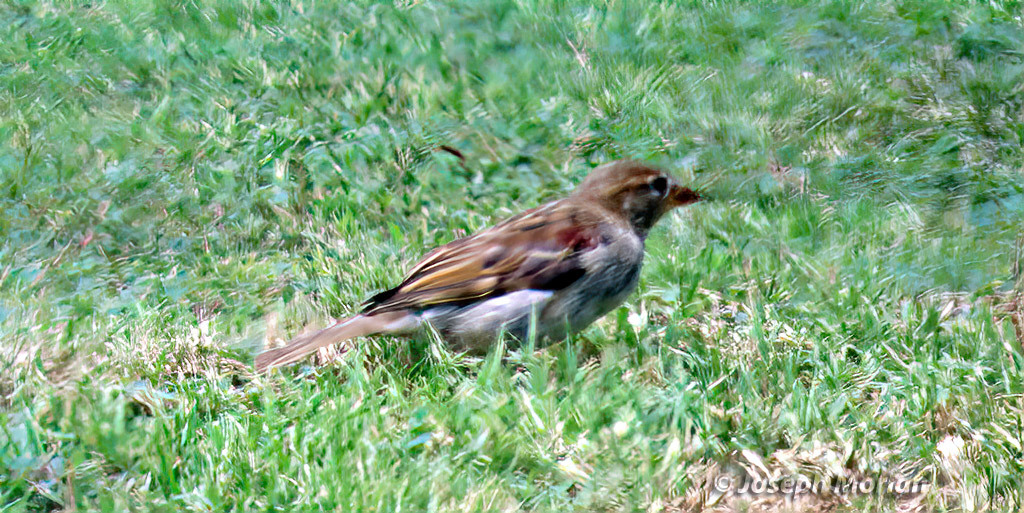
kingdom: Animalia
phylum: Chordata
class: Aves
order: Passeriformes
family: Passeridae
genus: Passer
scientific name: Passer domesticus
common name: House sparrow
